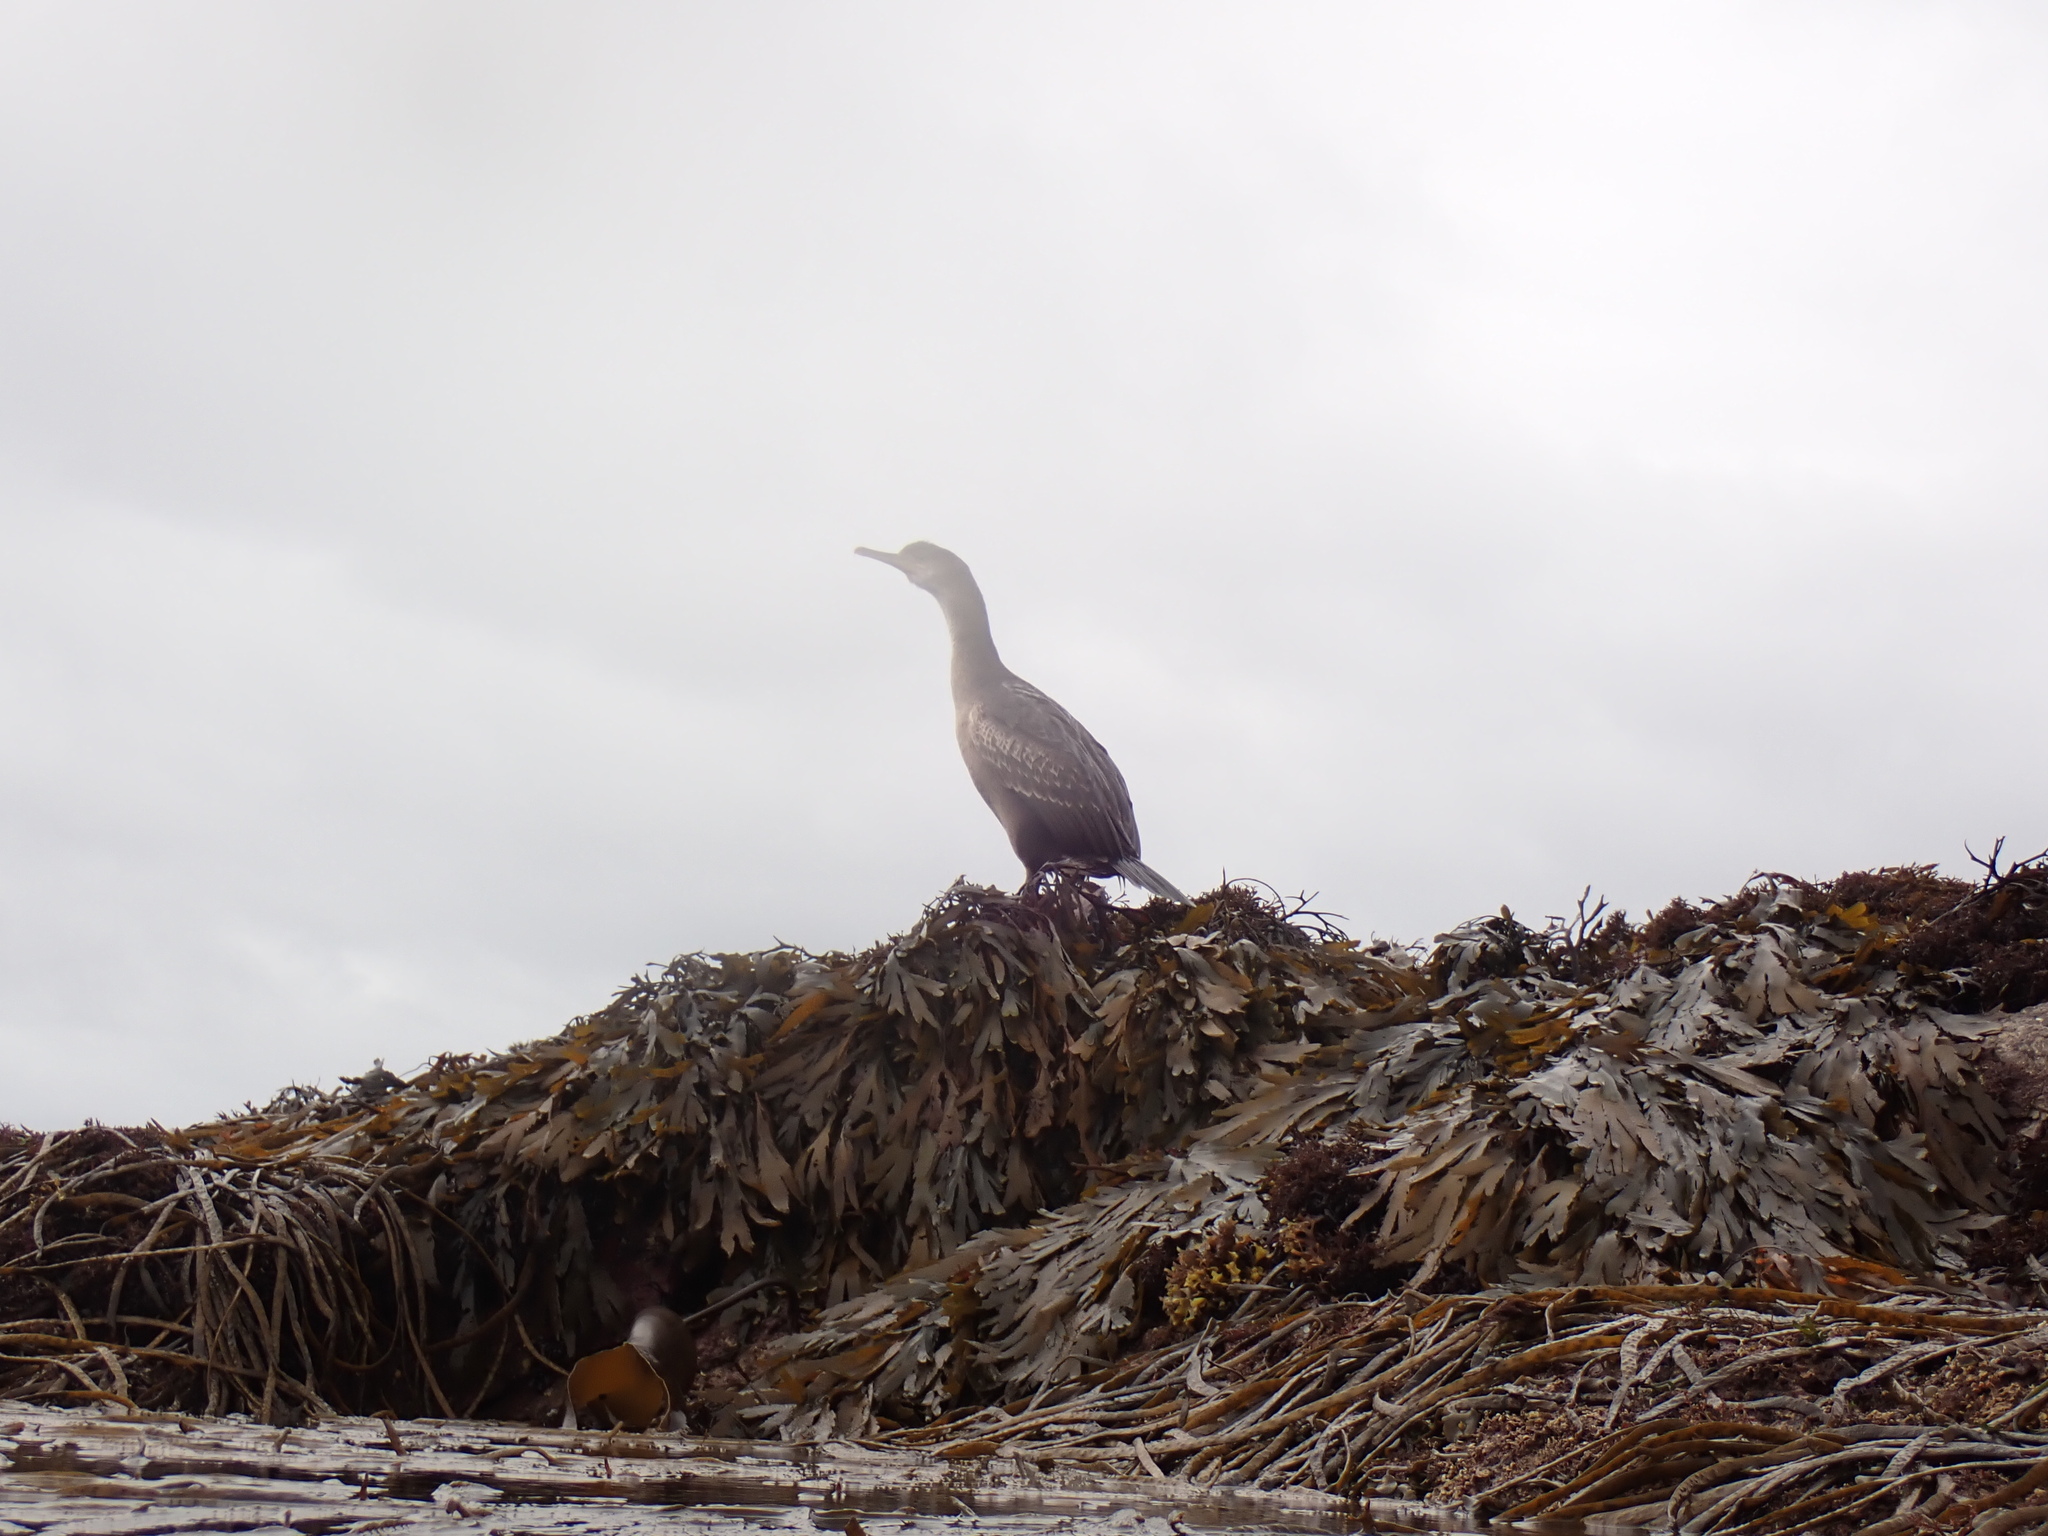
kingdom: Animalia
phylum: Chordata
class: Aves
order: Suliformes
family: Phalacrocoracidae
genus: Phalacrocorax
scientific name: Phalacrocorax carbo
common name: Great cormorant
